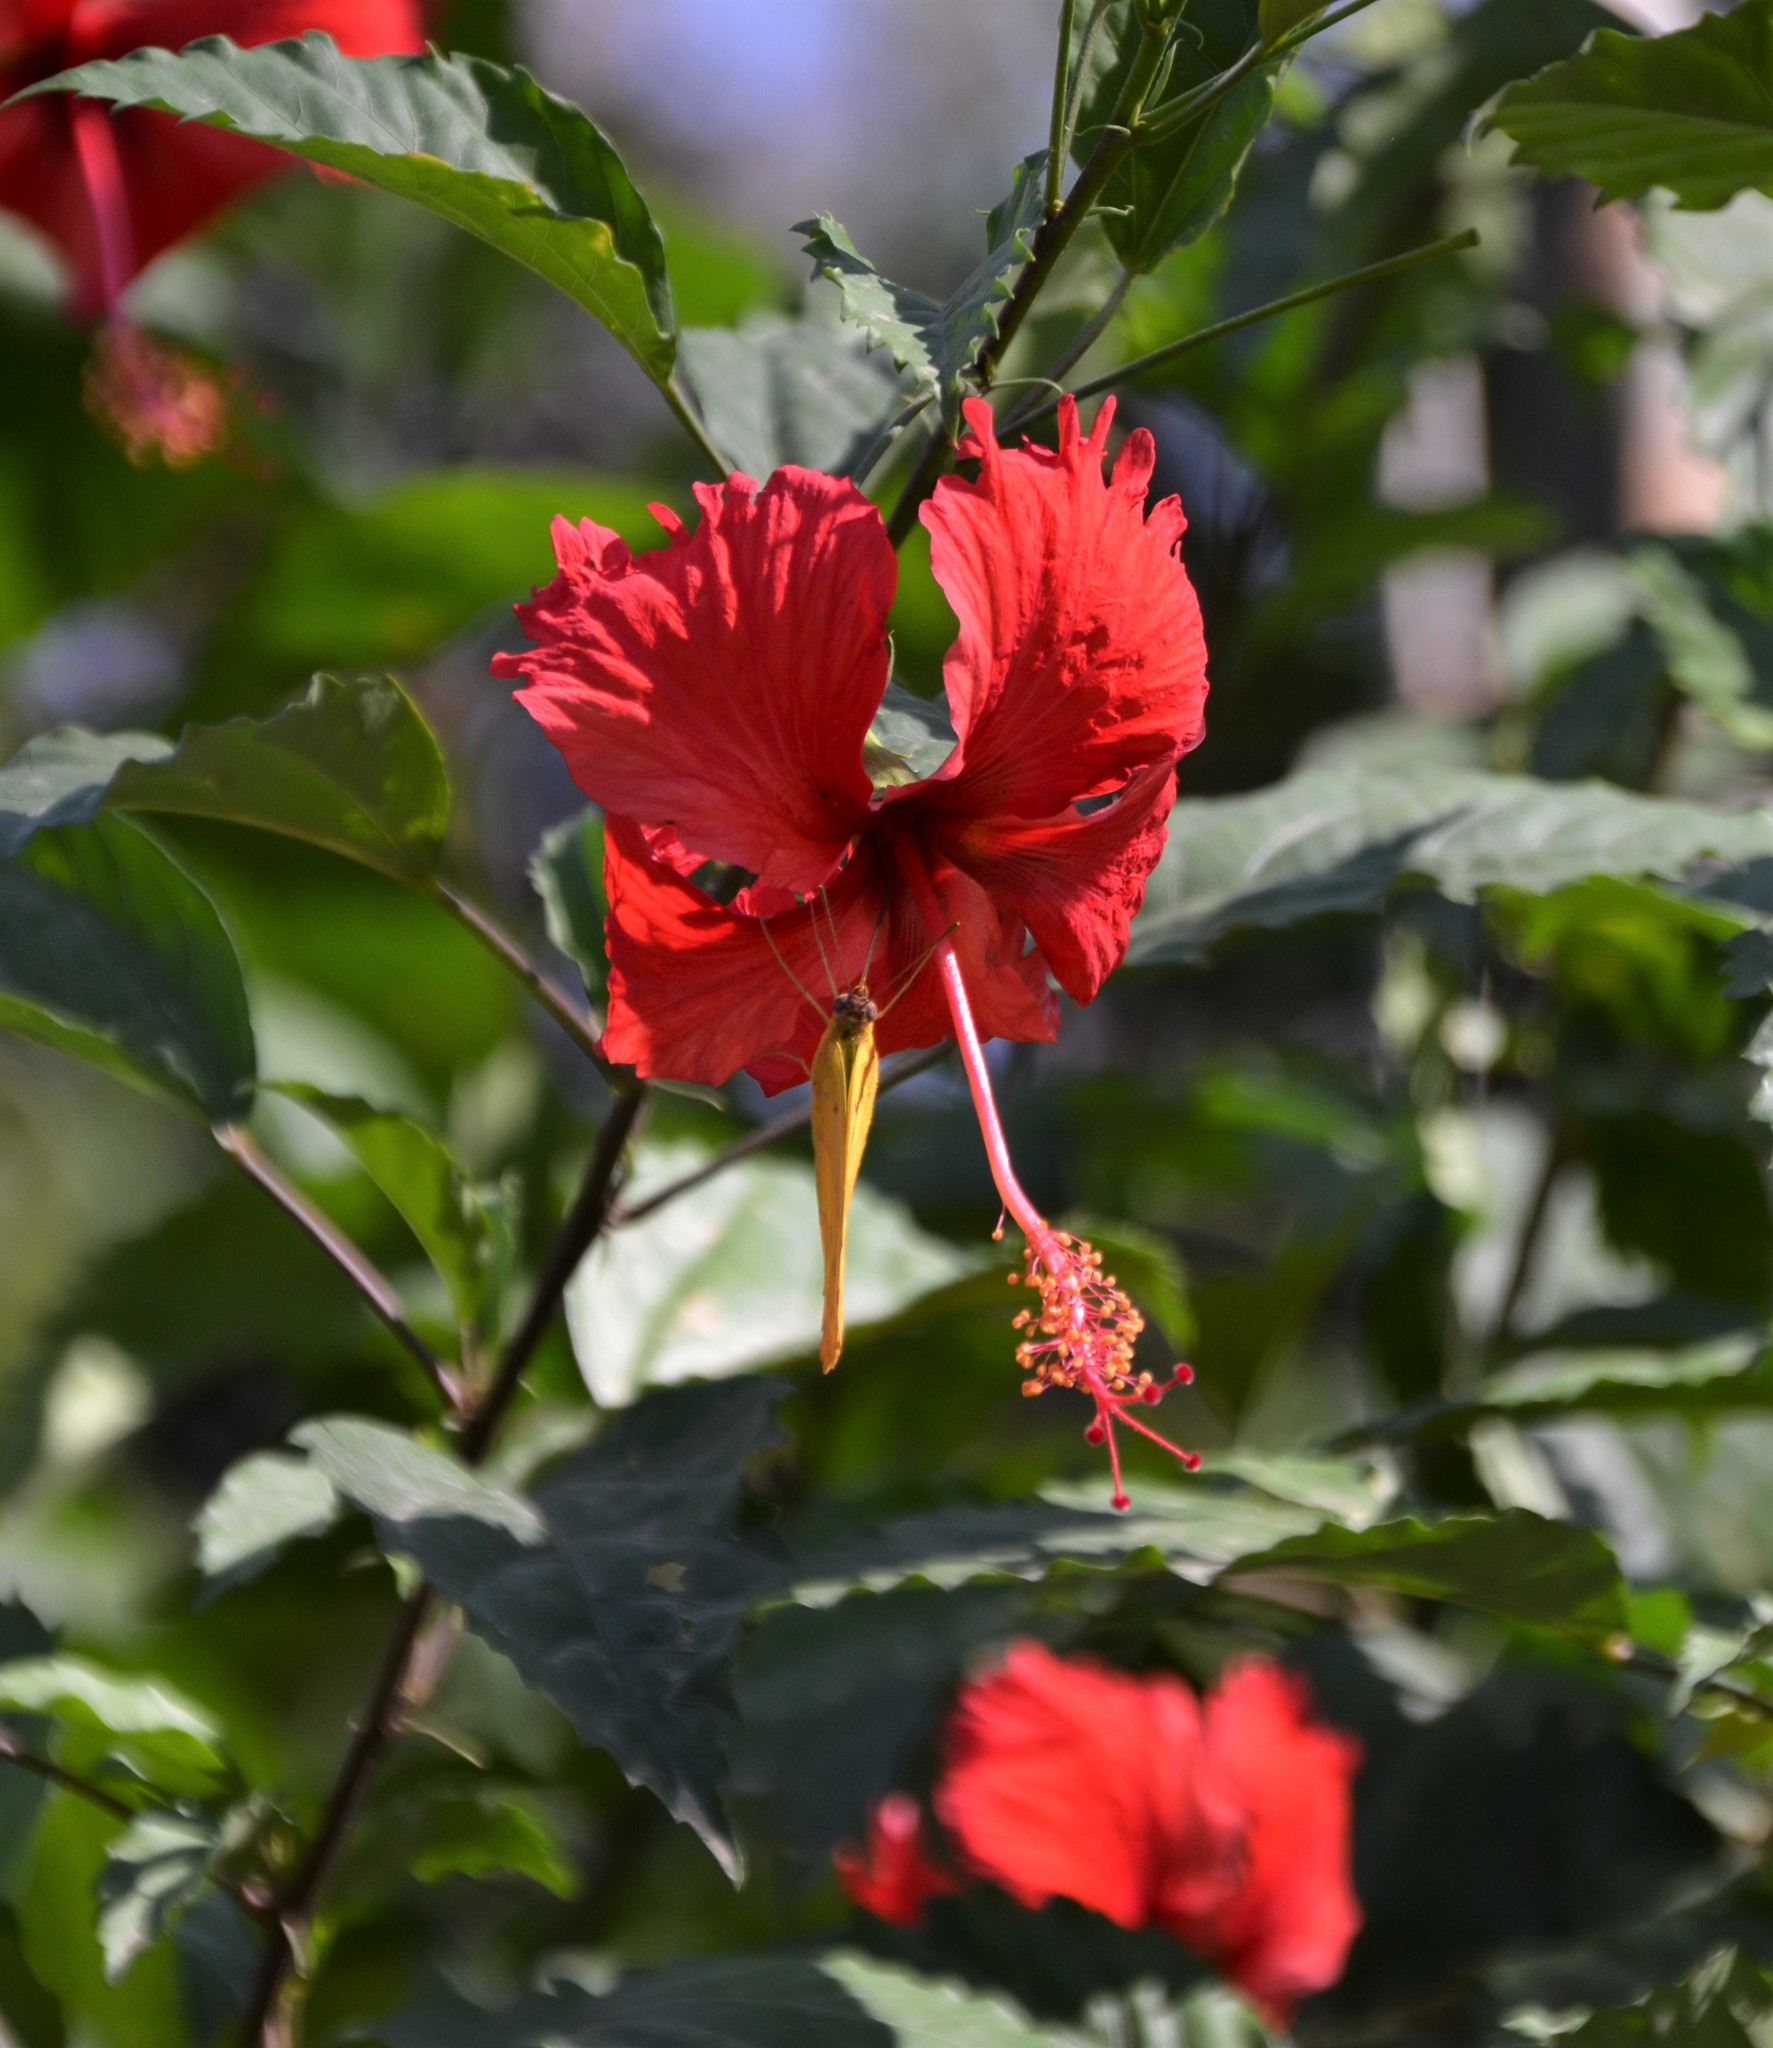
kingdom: Plantae
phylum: Tracheophyta
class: Magnoliopsida
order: Malvales
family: Malvaceae
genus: Hibiscus
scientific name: Hibiscus archeri
